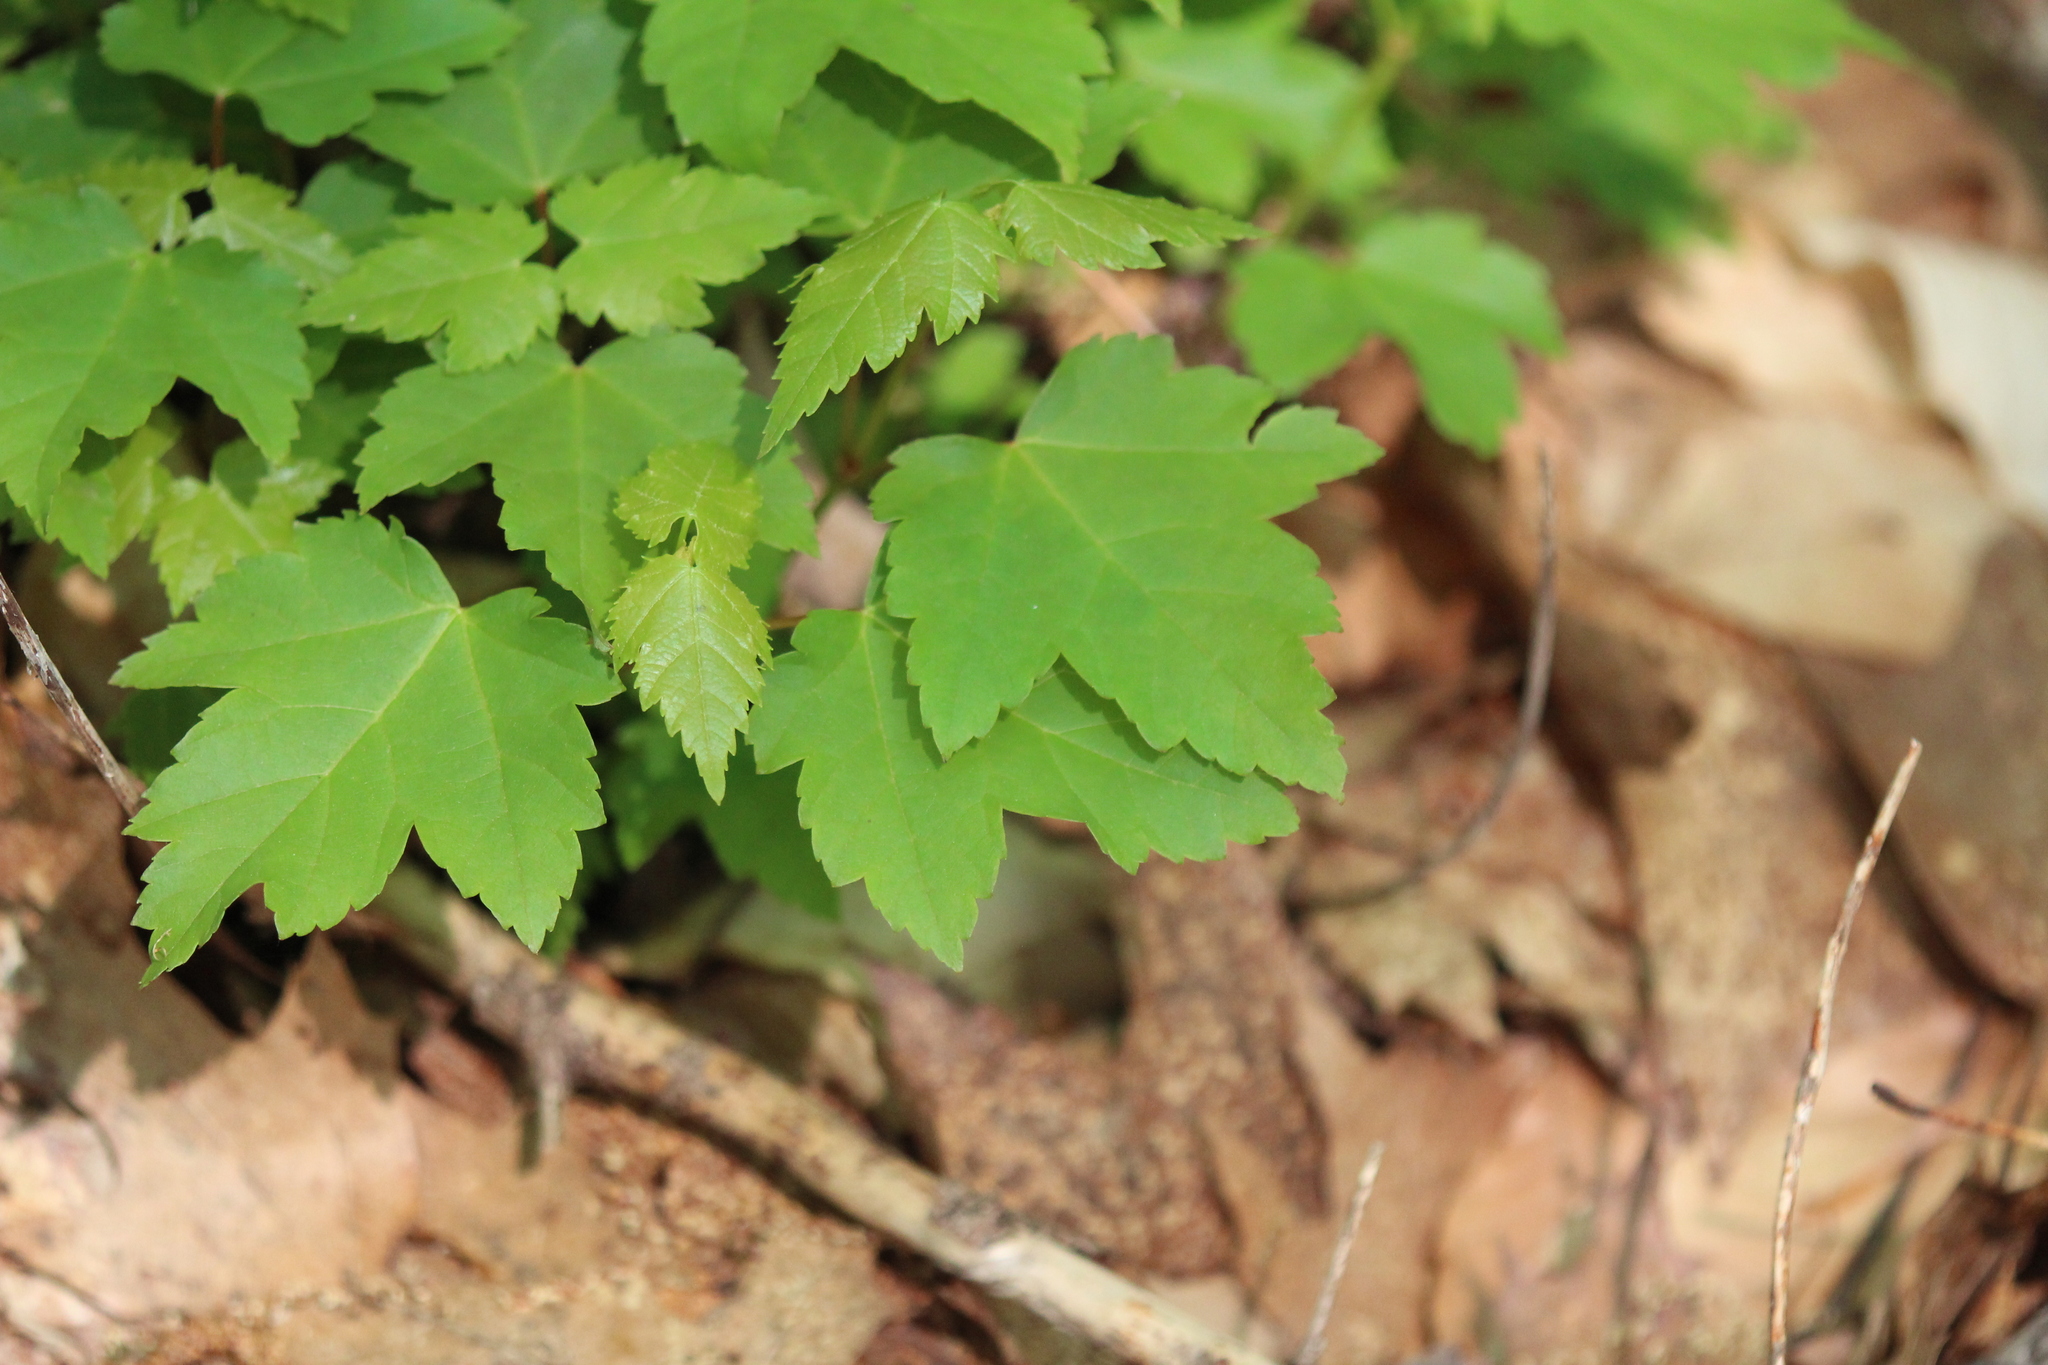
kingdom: Plantae
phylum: Tracheophyta
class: Magnoliopsida
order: Sapindales
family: Sapindaceae
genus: Acer
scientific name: Acer rubrum
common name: Red maple
